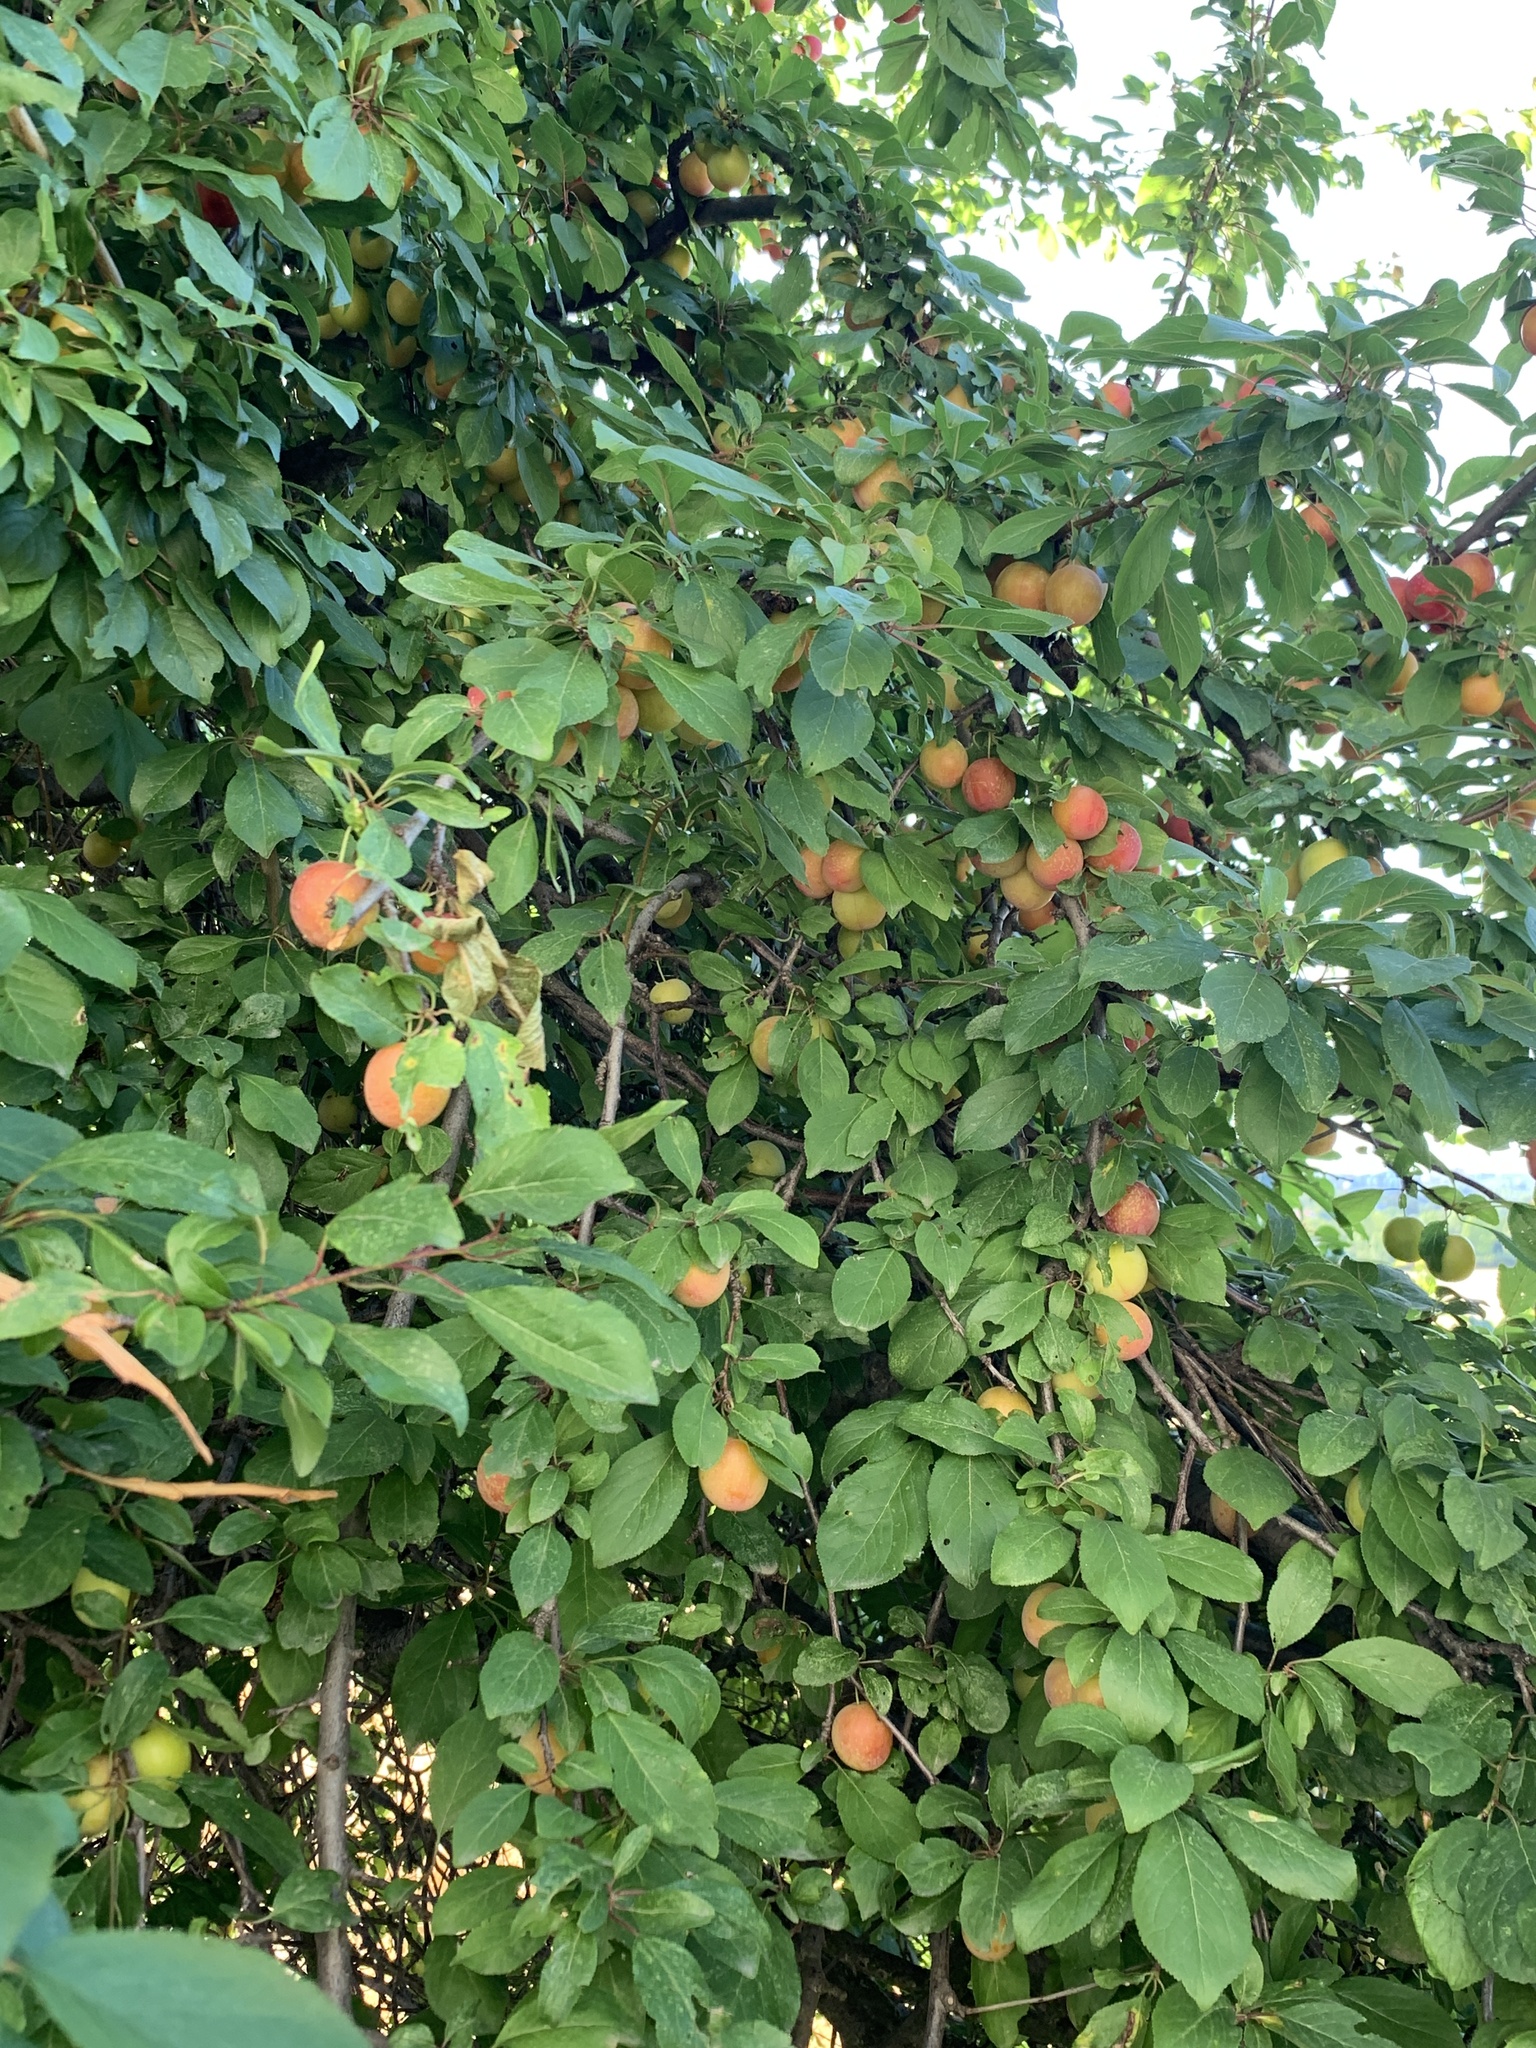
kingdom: Plantae
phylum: Tracheophyta
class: Magnoliopsida
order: Rosales
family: Rosaceae
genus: Prunus
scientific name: Prunus cerasifera
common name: Cherry plum
